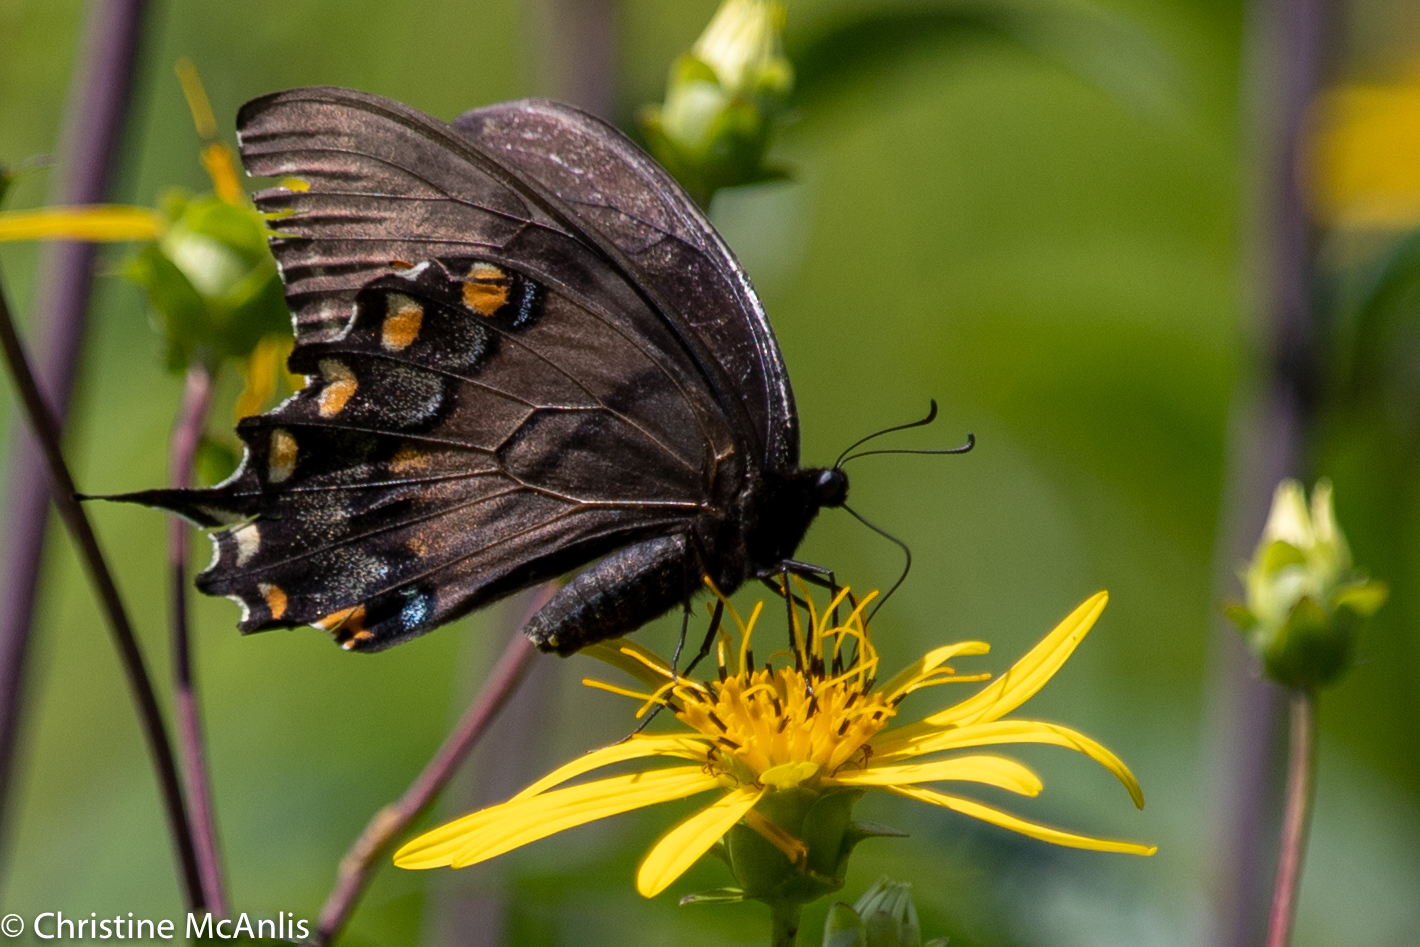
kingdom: Animalia
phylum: Arthropoda
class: Insecta
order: Lepidoptera
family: Papilionidae
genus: Papilio
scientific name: Papilio glaucus
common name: Tiger swallowtail
